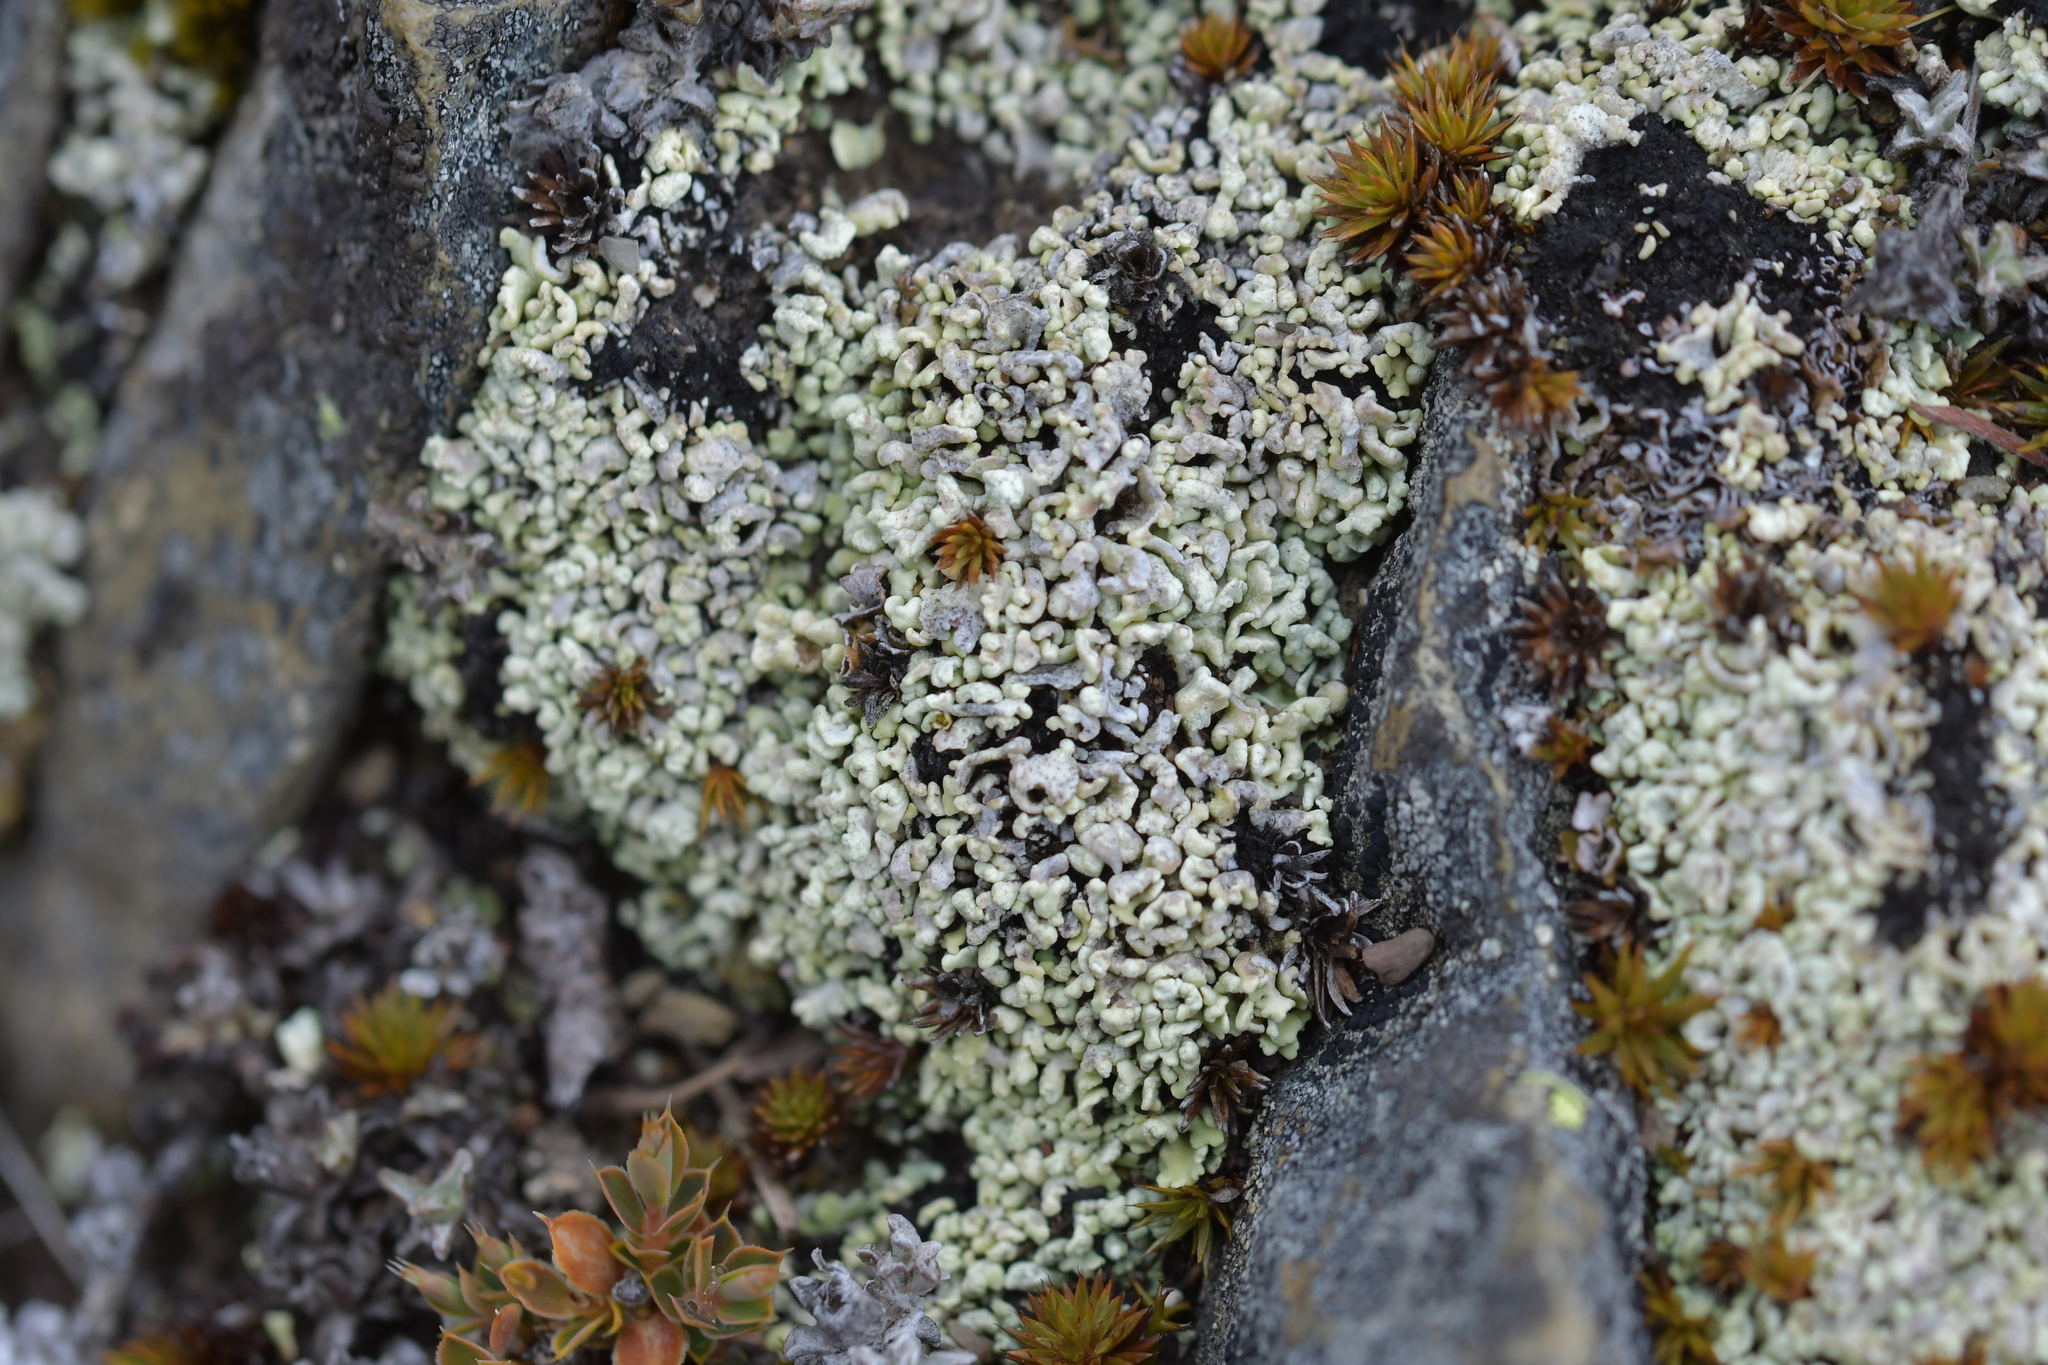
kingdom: Fungi
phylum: Ascomycota
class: Lecanoromycetes
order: Caliciales
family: Physciaceae
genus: Physcia
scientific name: Physcia caesia
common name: Blue-gray rosette lichen
